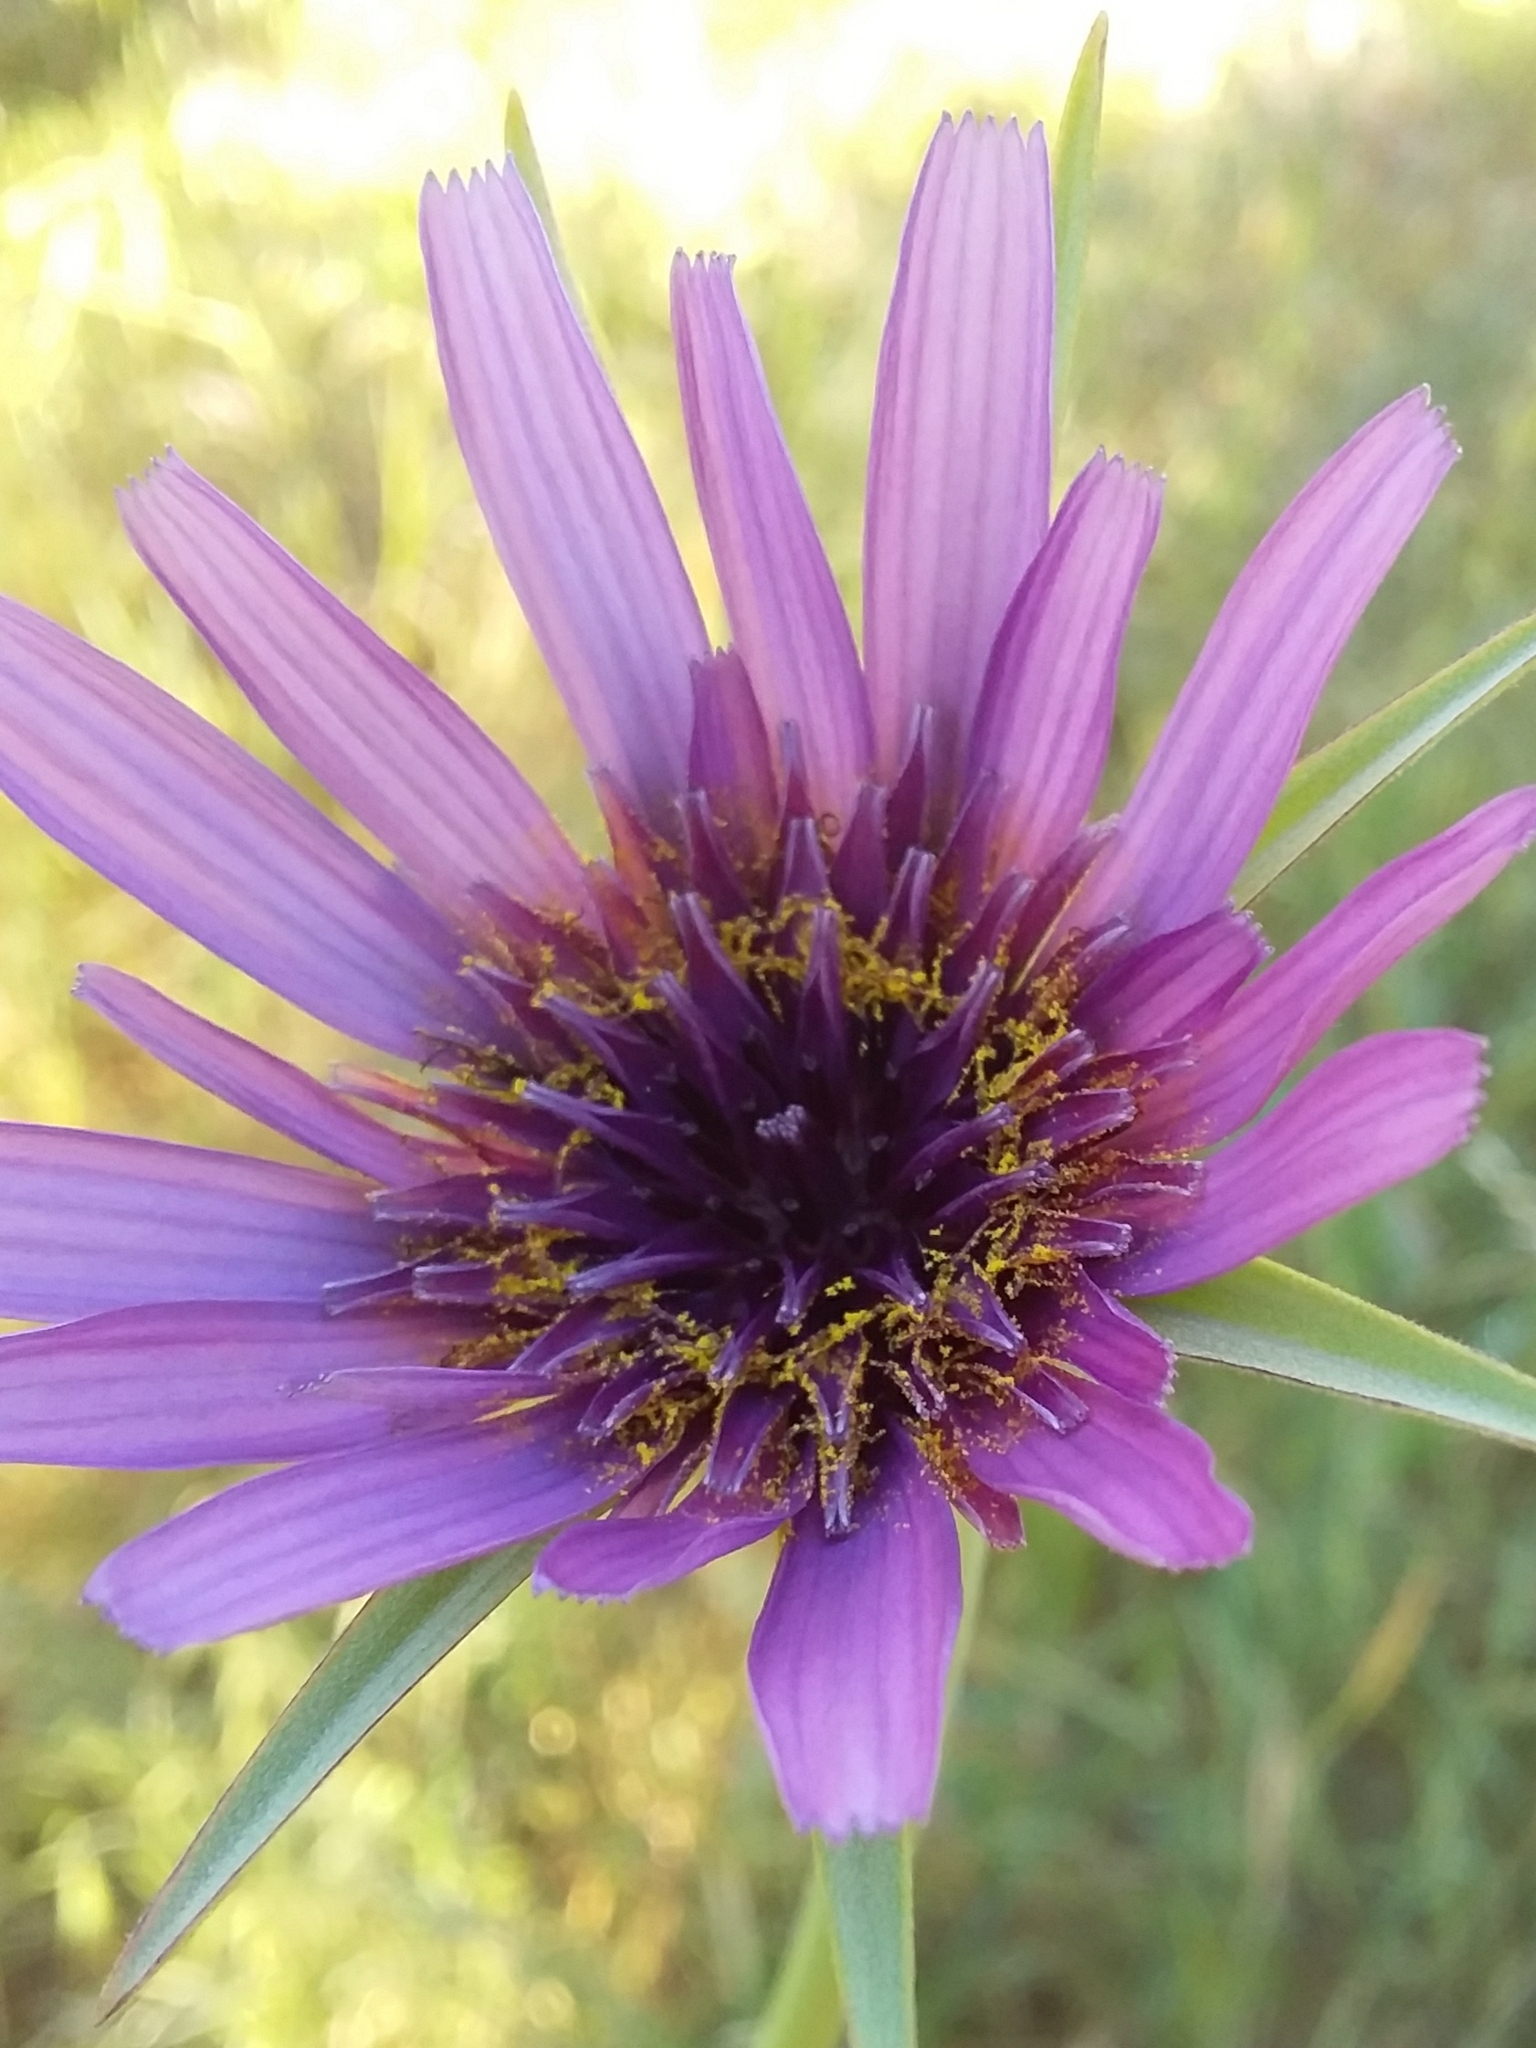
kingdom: Plantae
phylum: Tracheophyta
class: Magnoliopsida
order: Asterales
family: Asteraceae
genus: Tragopogon
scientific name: Tragopogon porrifolius
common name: Salsify
